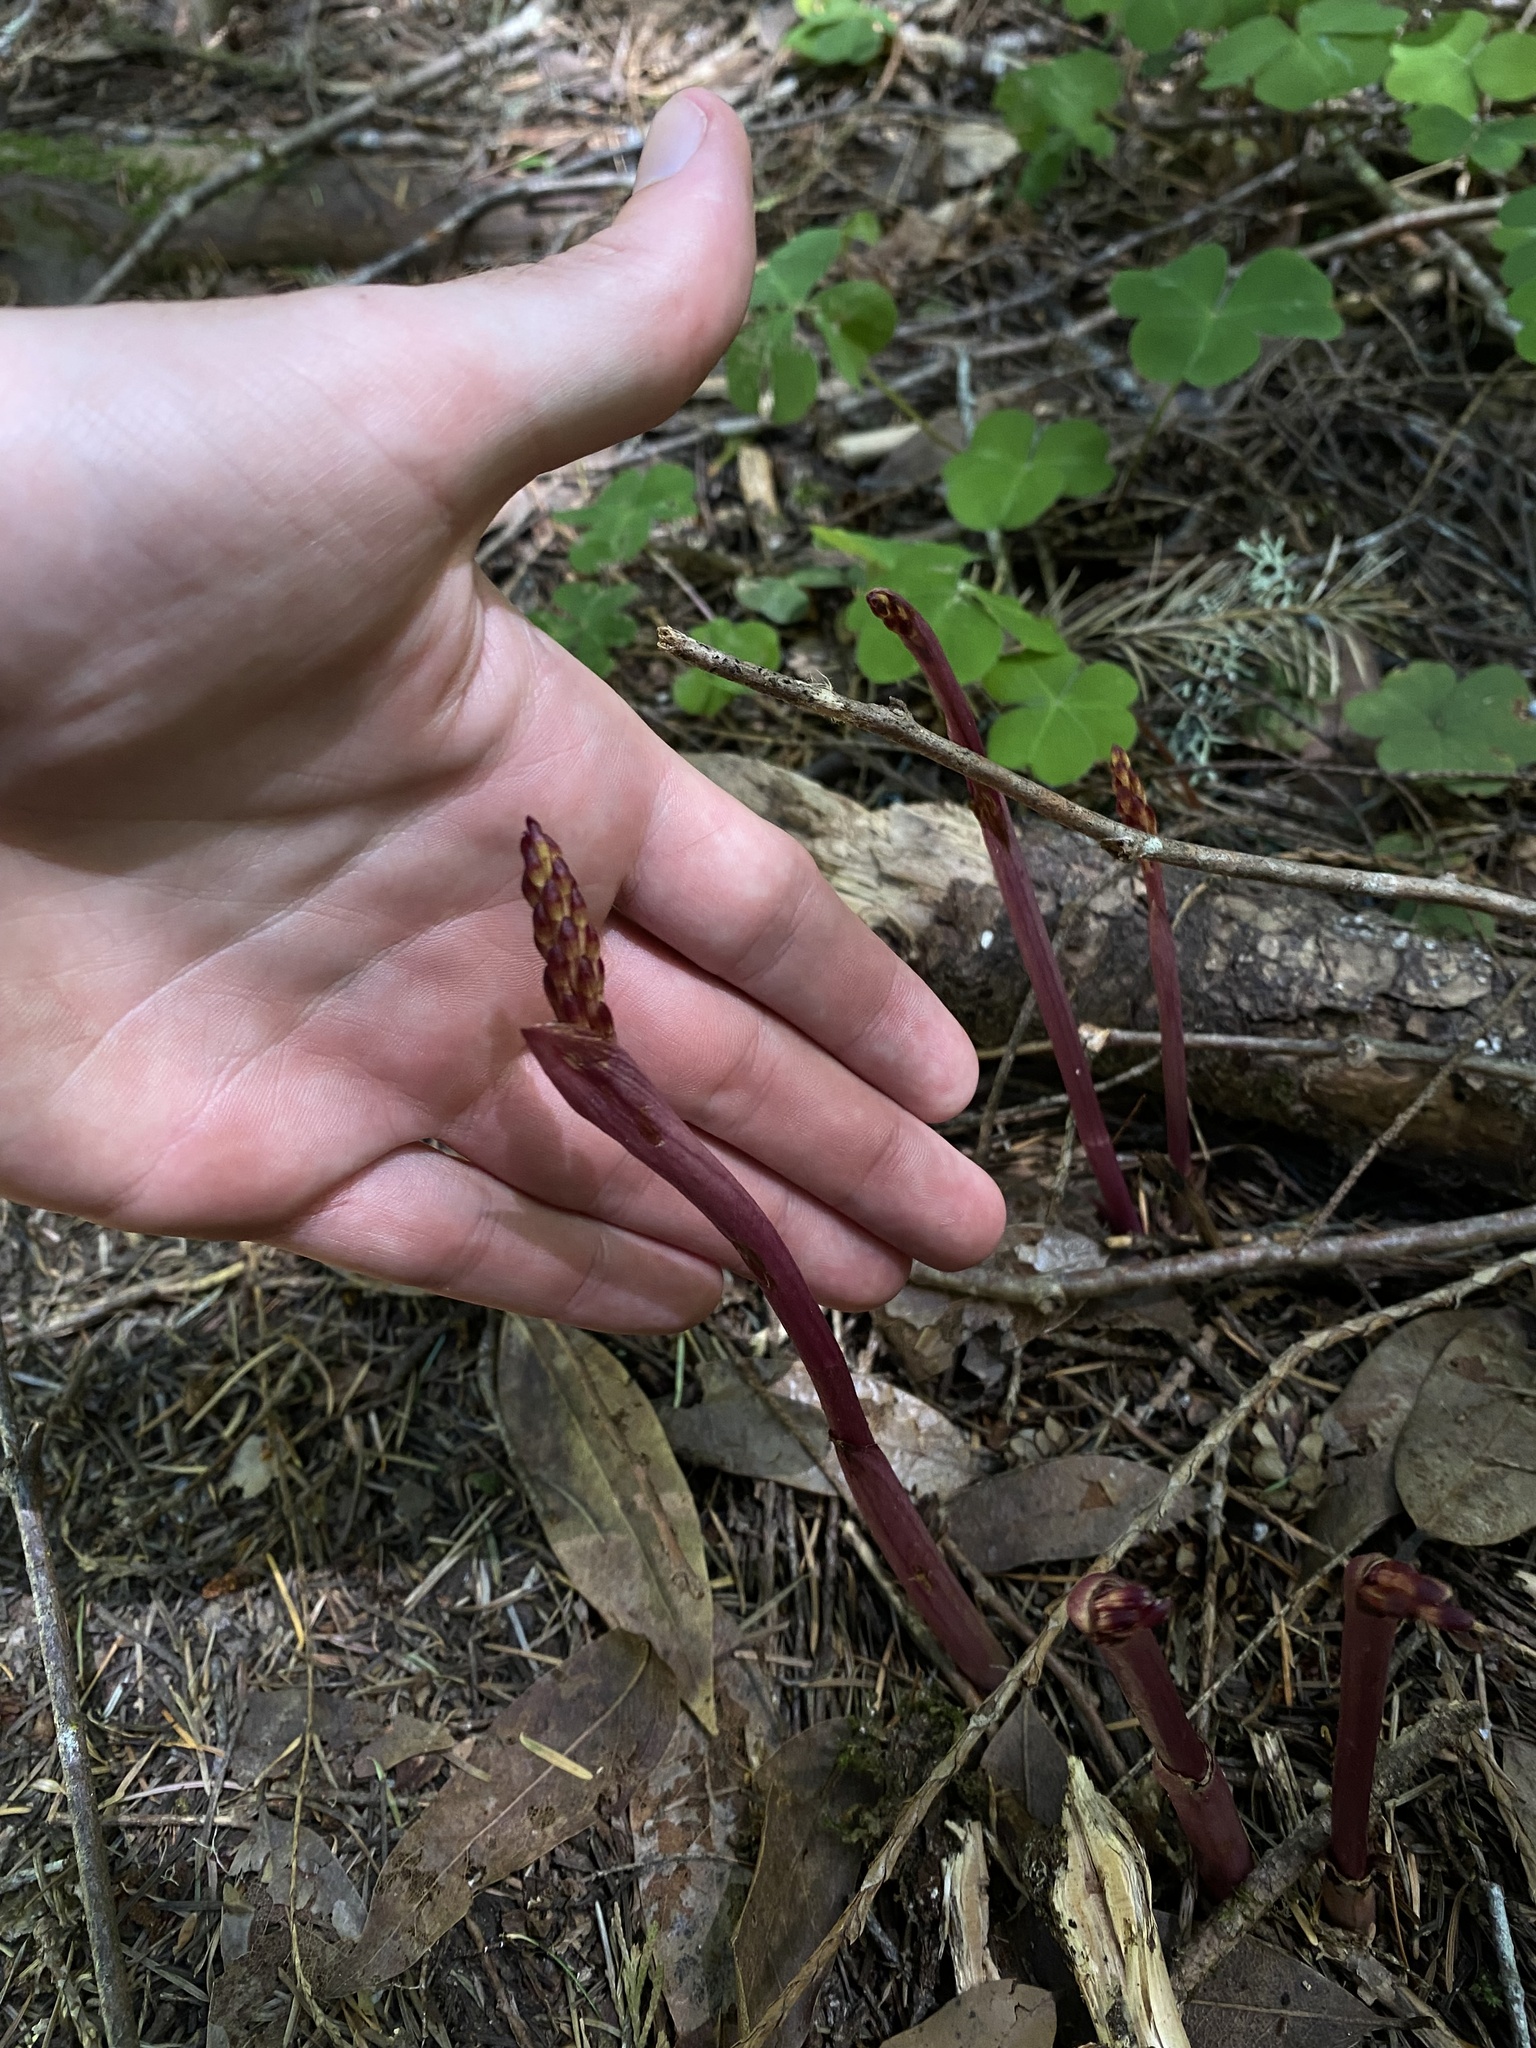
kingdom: Plantae
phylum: Tracheophyta
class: Liliopsida
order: Asparagales
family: Orchidaceae
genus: Corallorhiza
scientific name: Corallorhiza maculata
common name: Spotted coralroot
